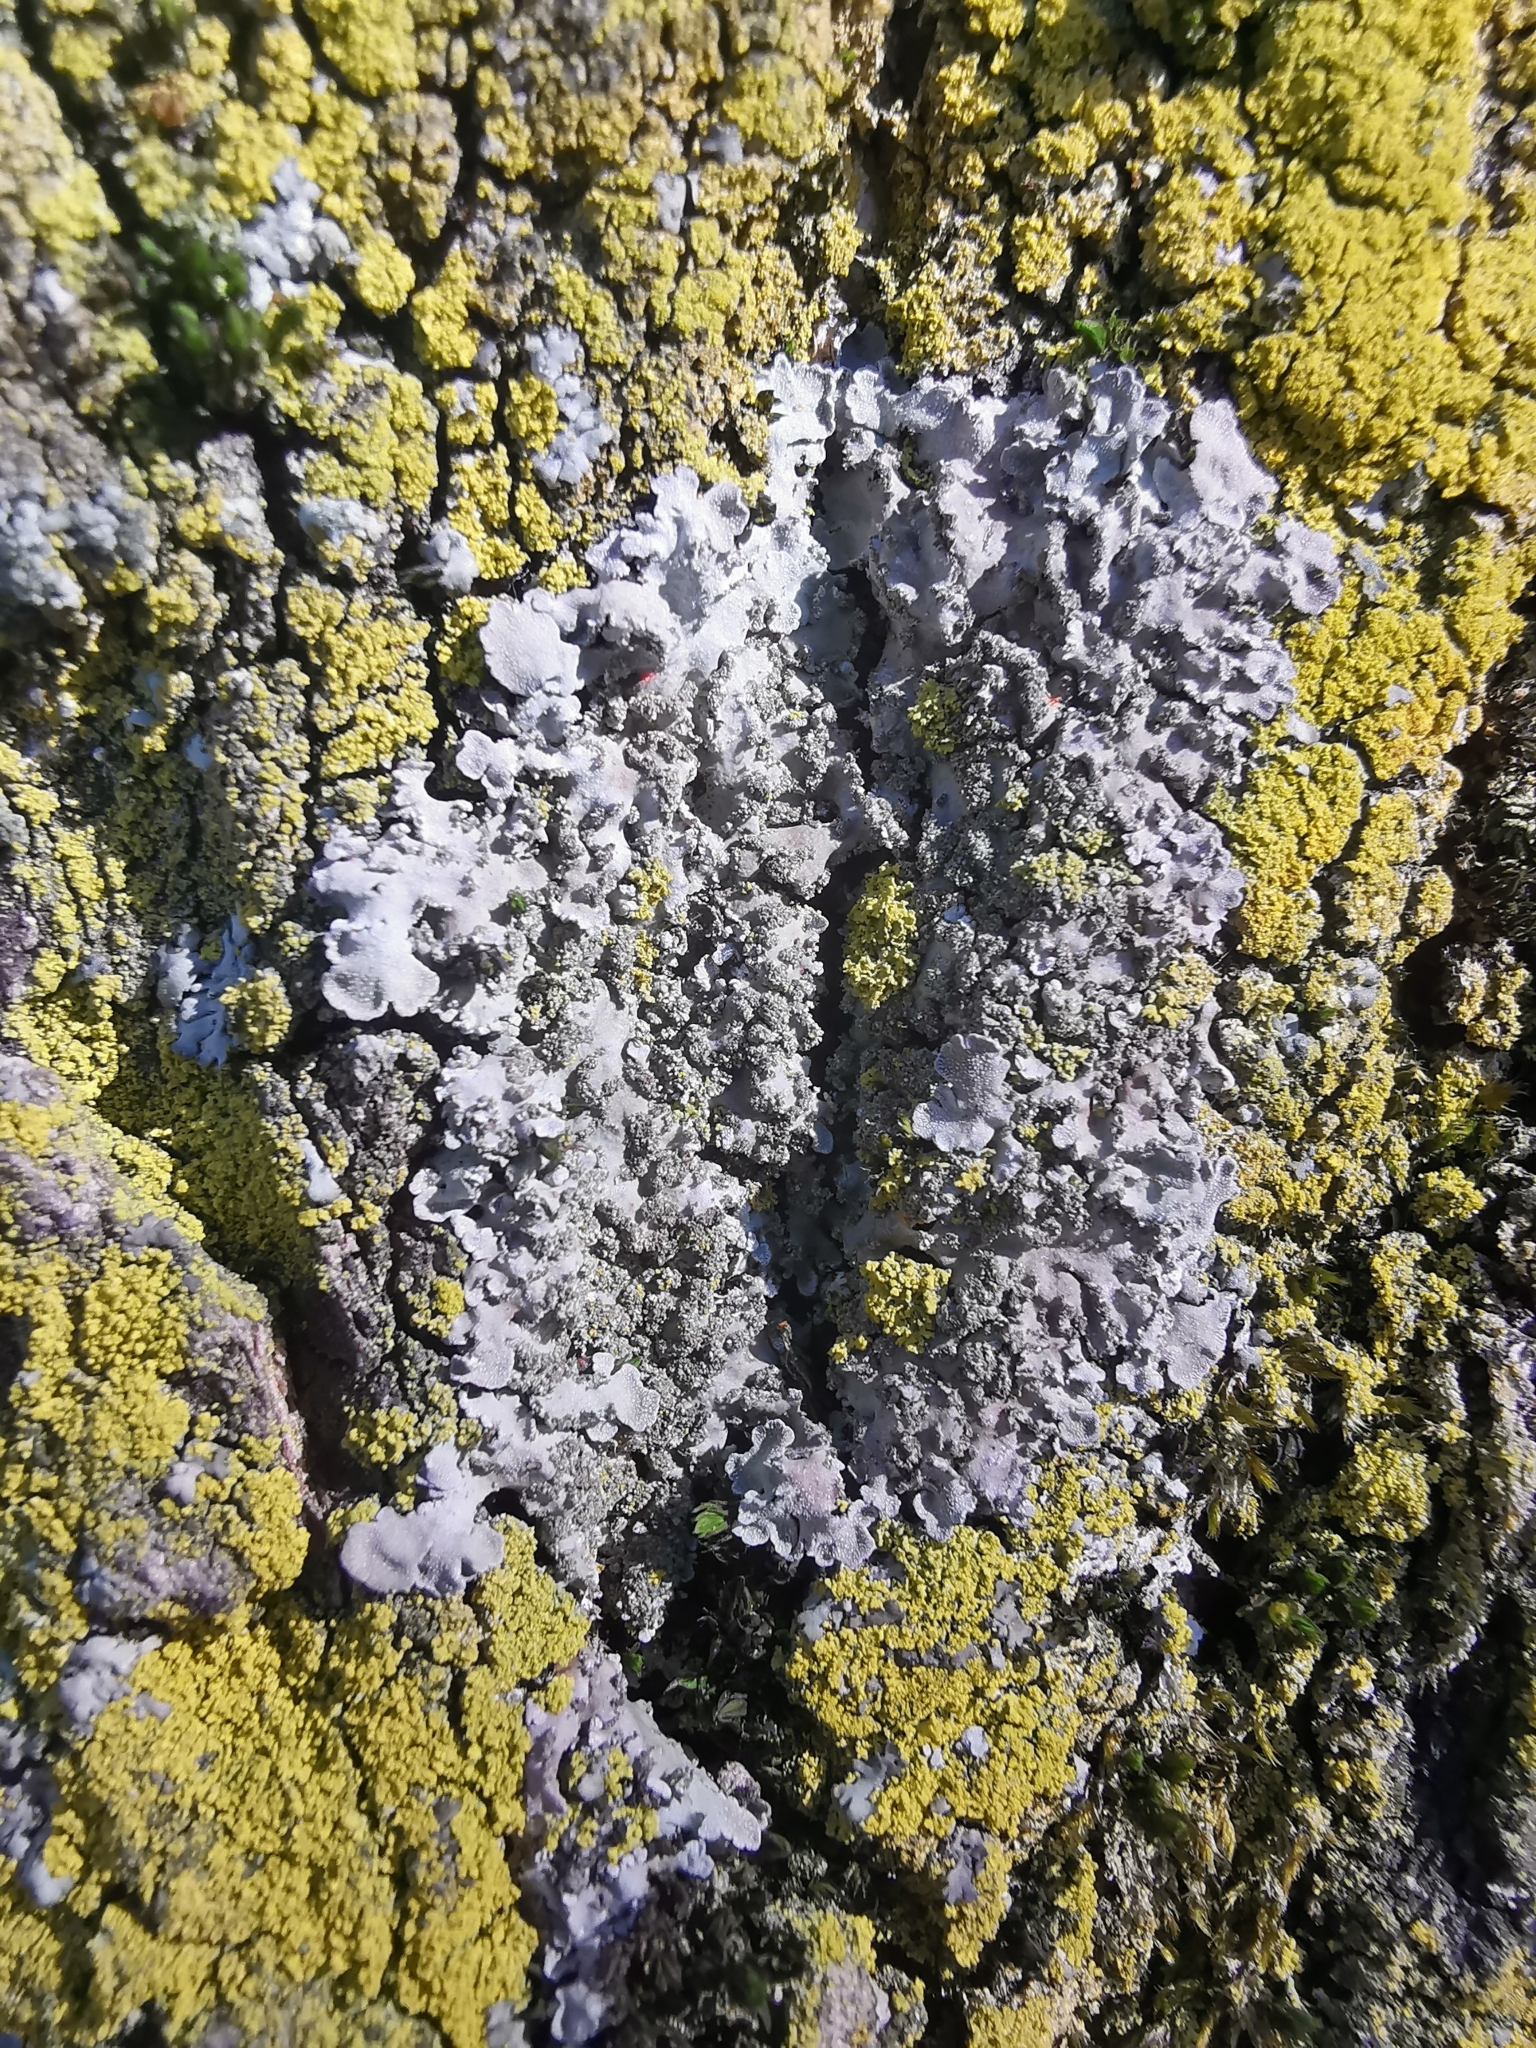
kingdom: Fungi
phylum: Ascomycota
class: Lecanoromycetes
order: Caliciales
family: Physciaceae
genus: Poeltonia
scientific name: Poeltonia grisea
